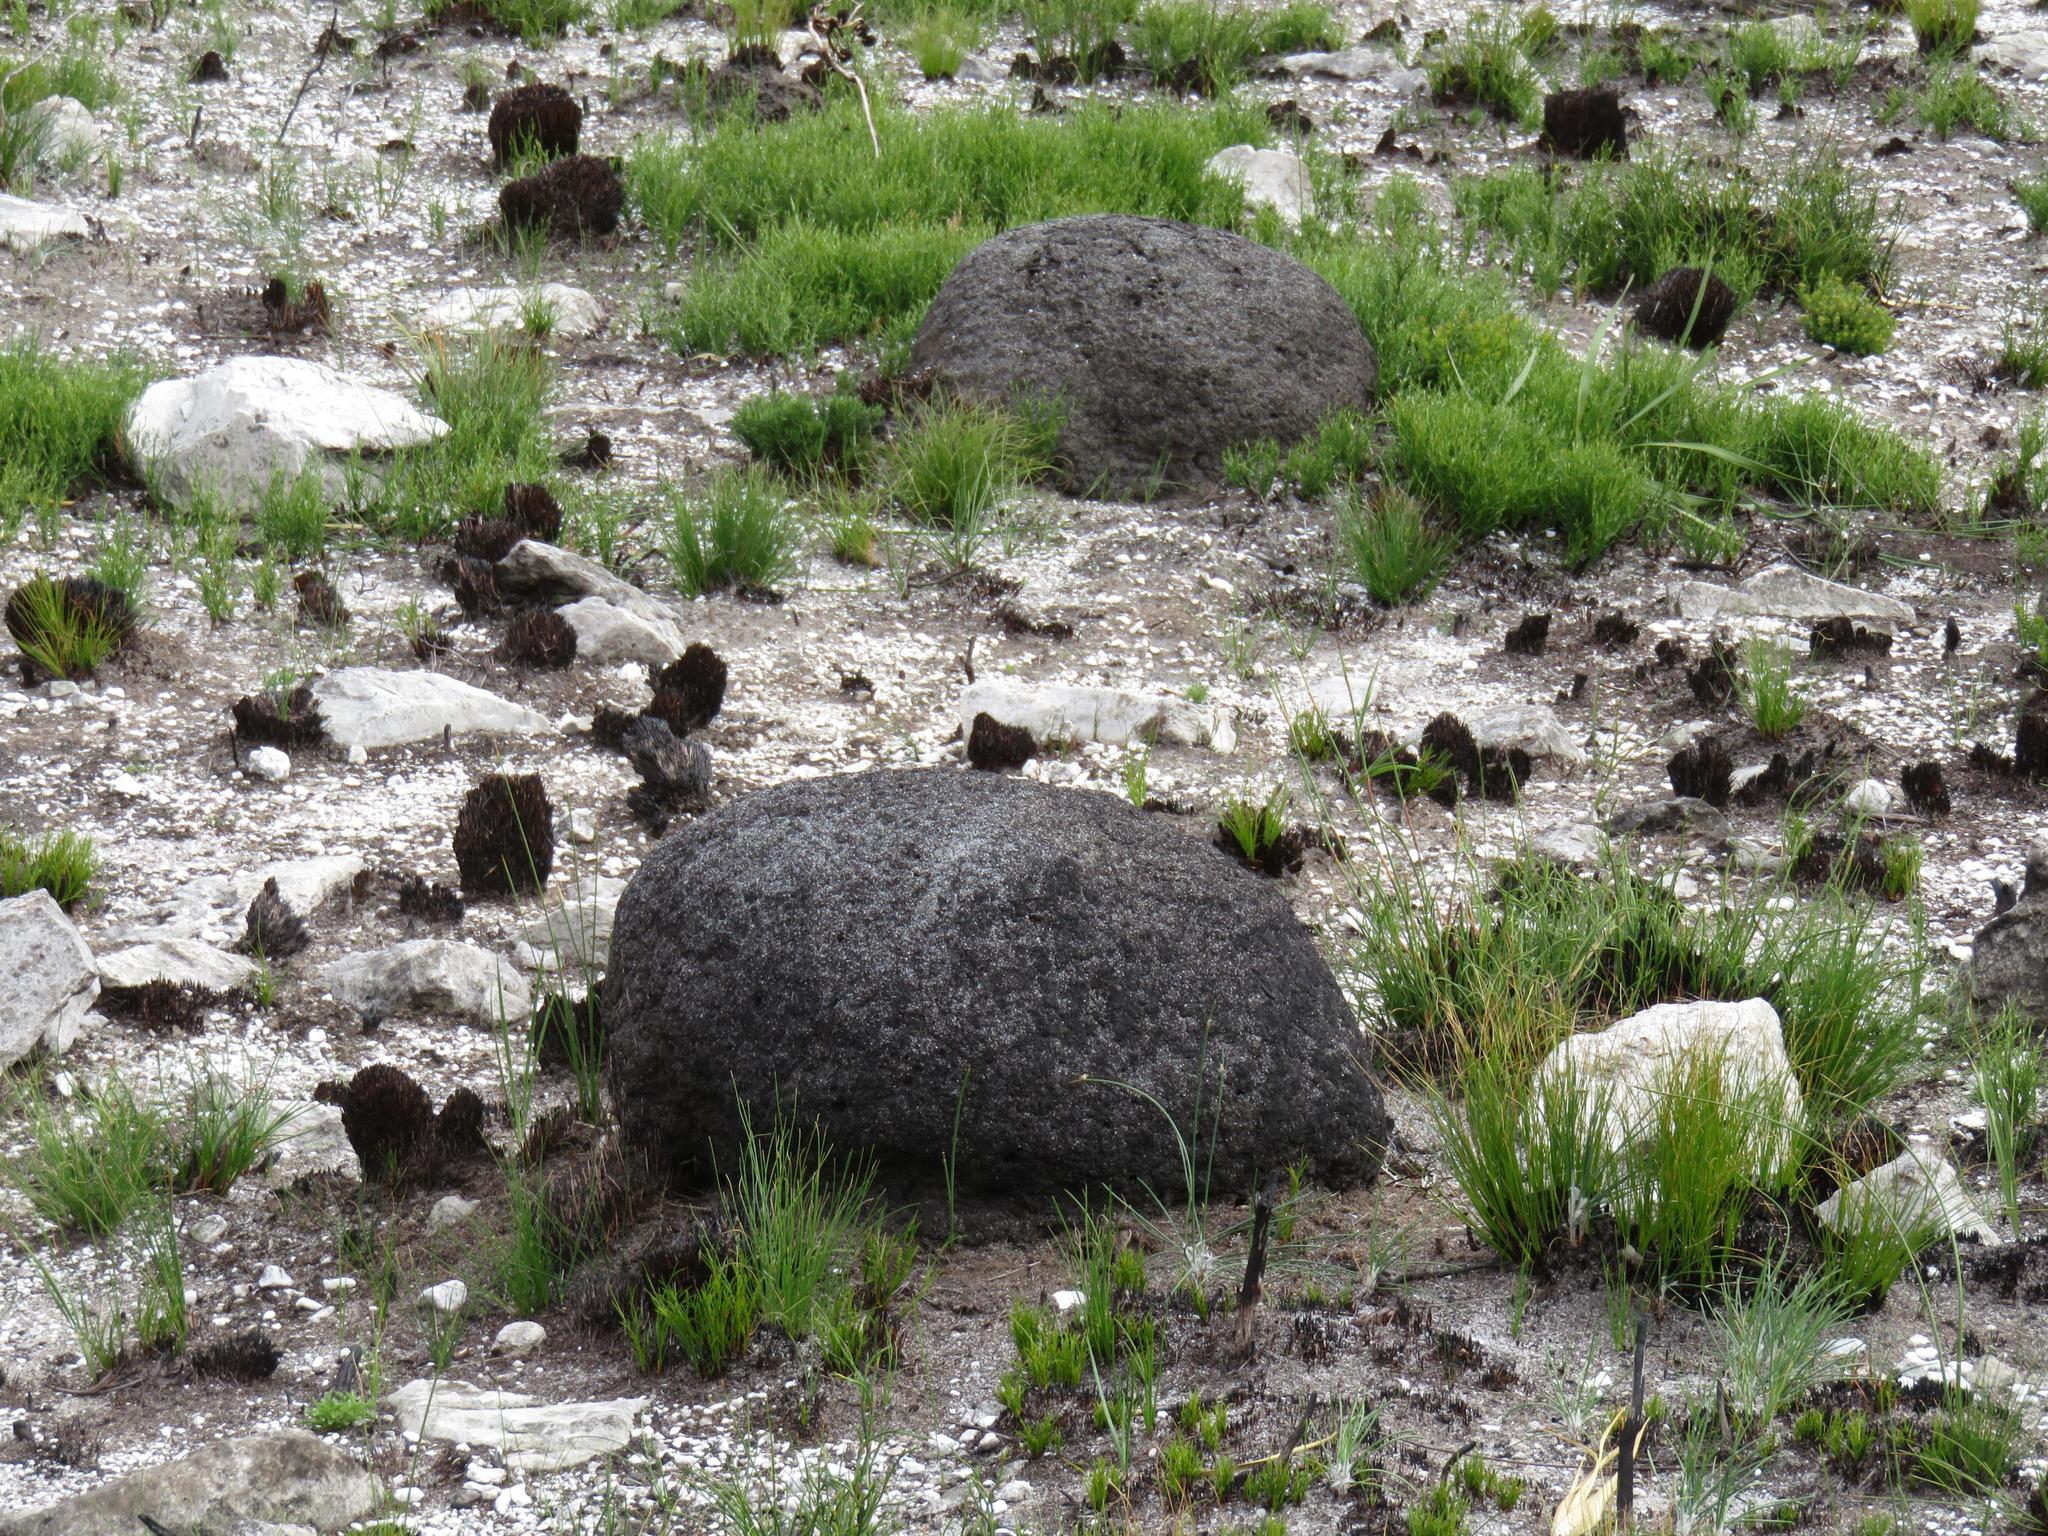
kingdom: Animalia
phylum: Arthropoda
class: Insecta
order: Blattodea
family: Termitidae
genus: Amitermes
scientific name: Amitermes hastatus
